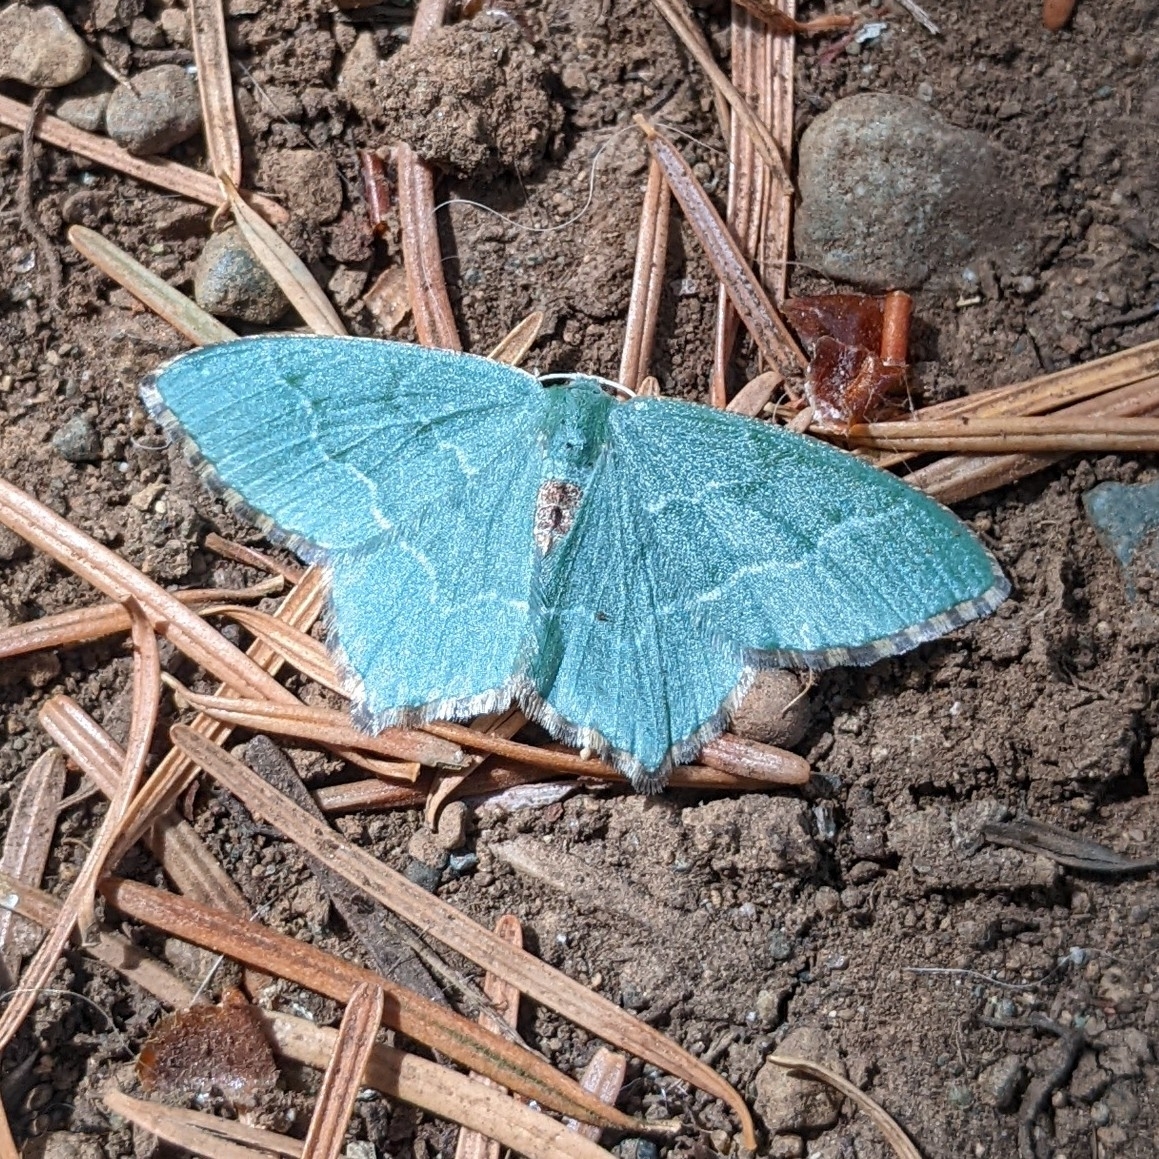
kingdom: Animalia
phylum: Arthropoda
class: Insecta
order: Lepidoptera
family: Geometridae
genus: Hemithea
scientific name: Hemithea aestivaria
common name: Common emerald
